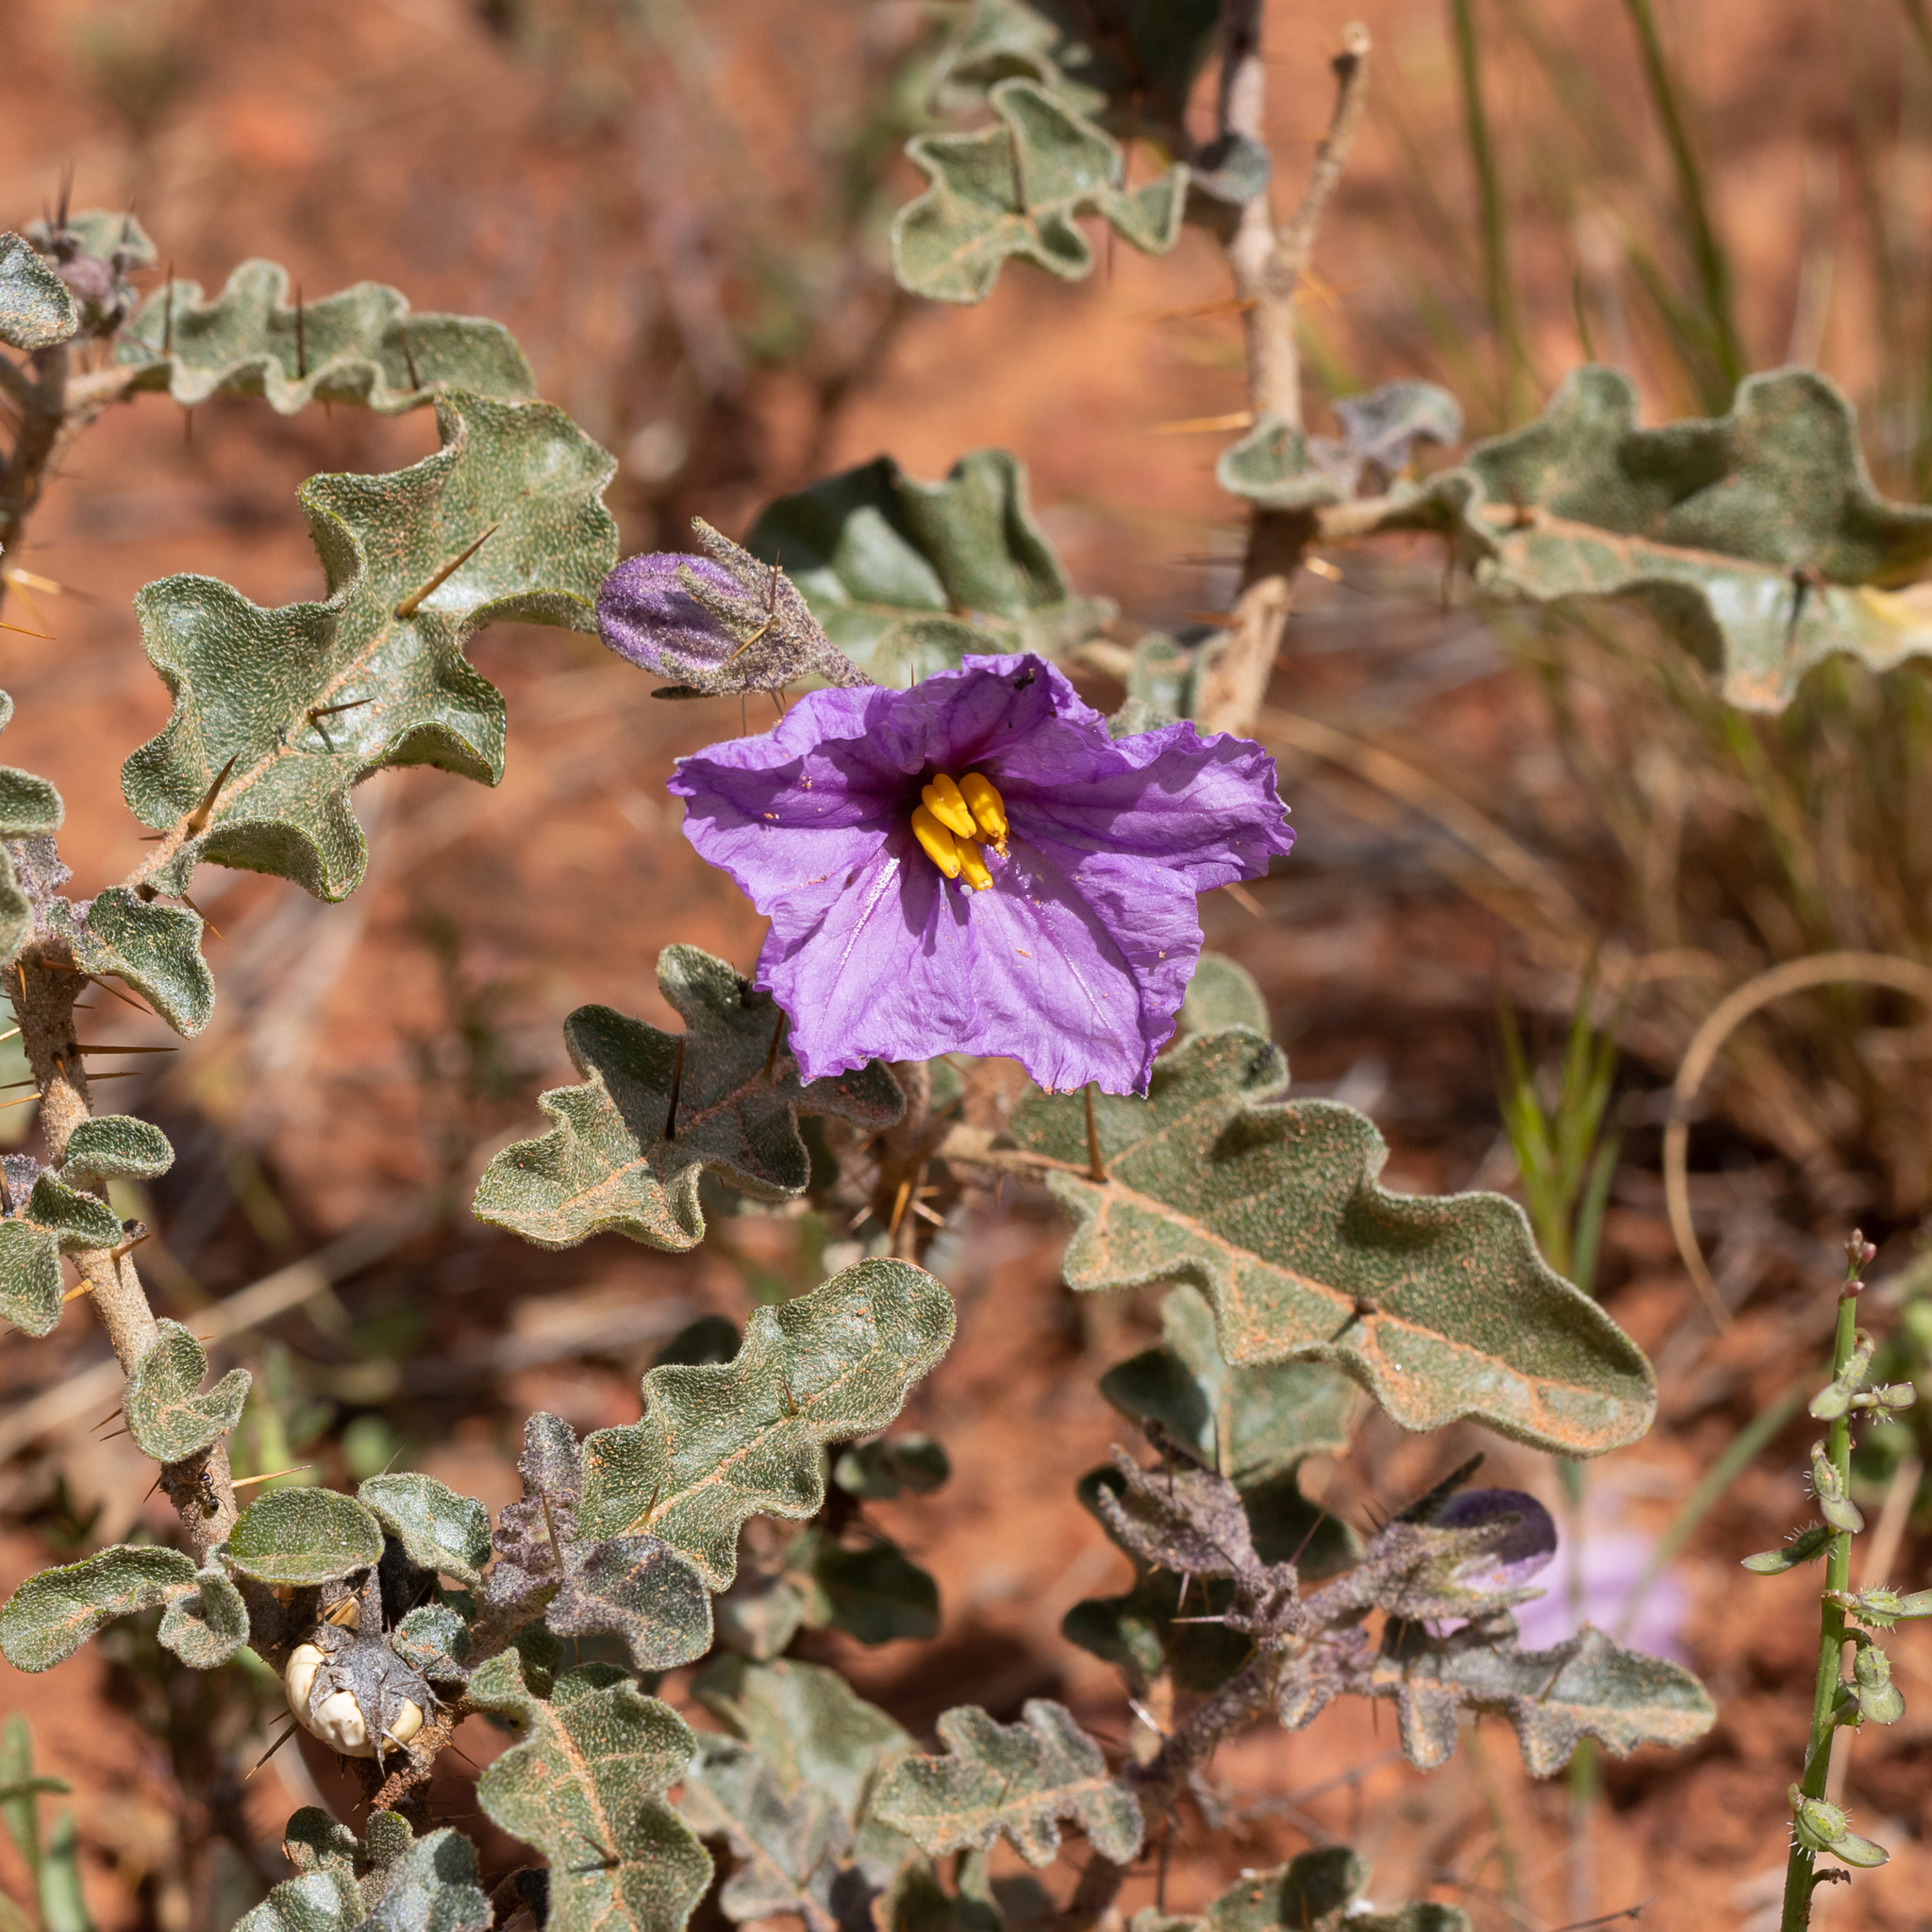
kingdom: Plantae
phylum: Tracheophyta
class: Magnoliopsida
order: Solanales
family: Solanaceae
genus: Solanum
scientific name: Solanum petrophilum
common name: Rock nightshade
